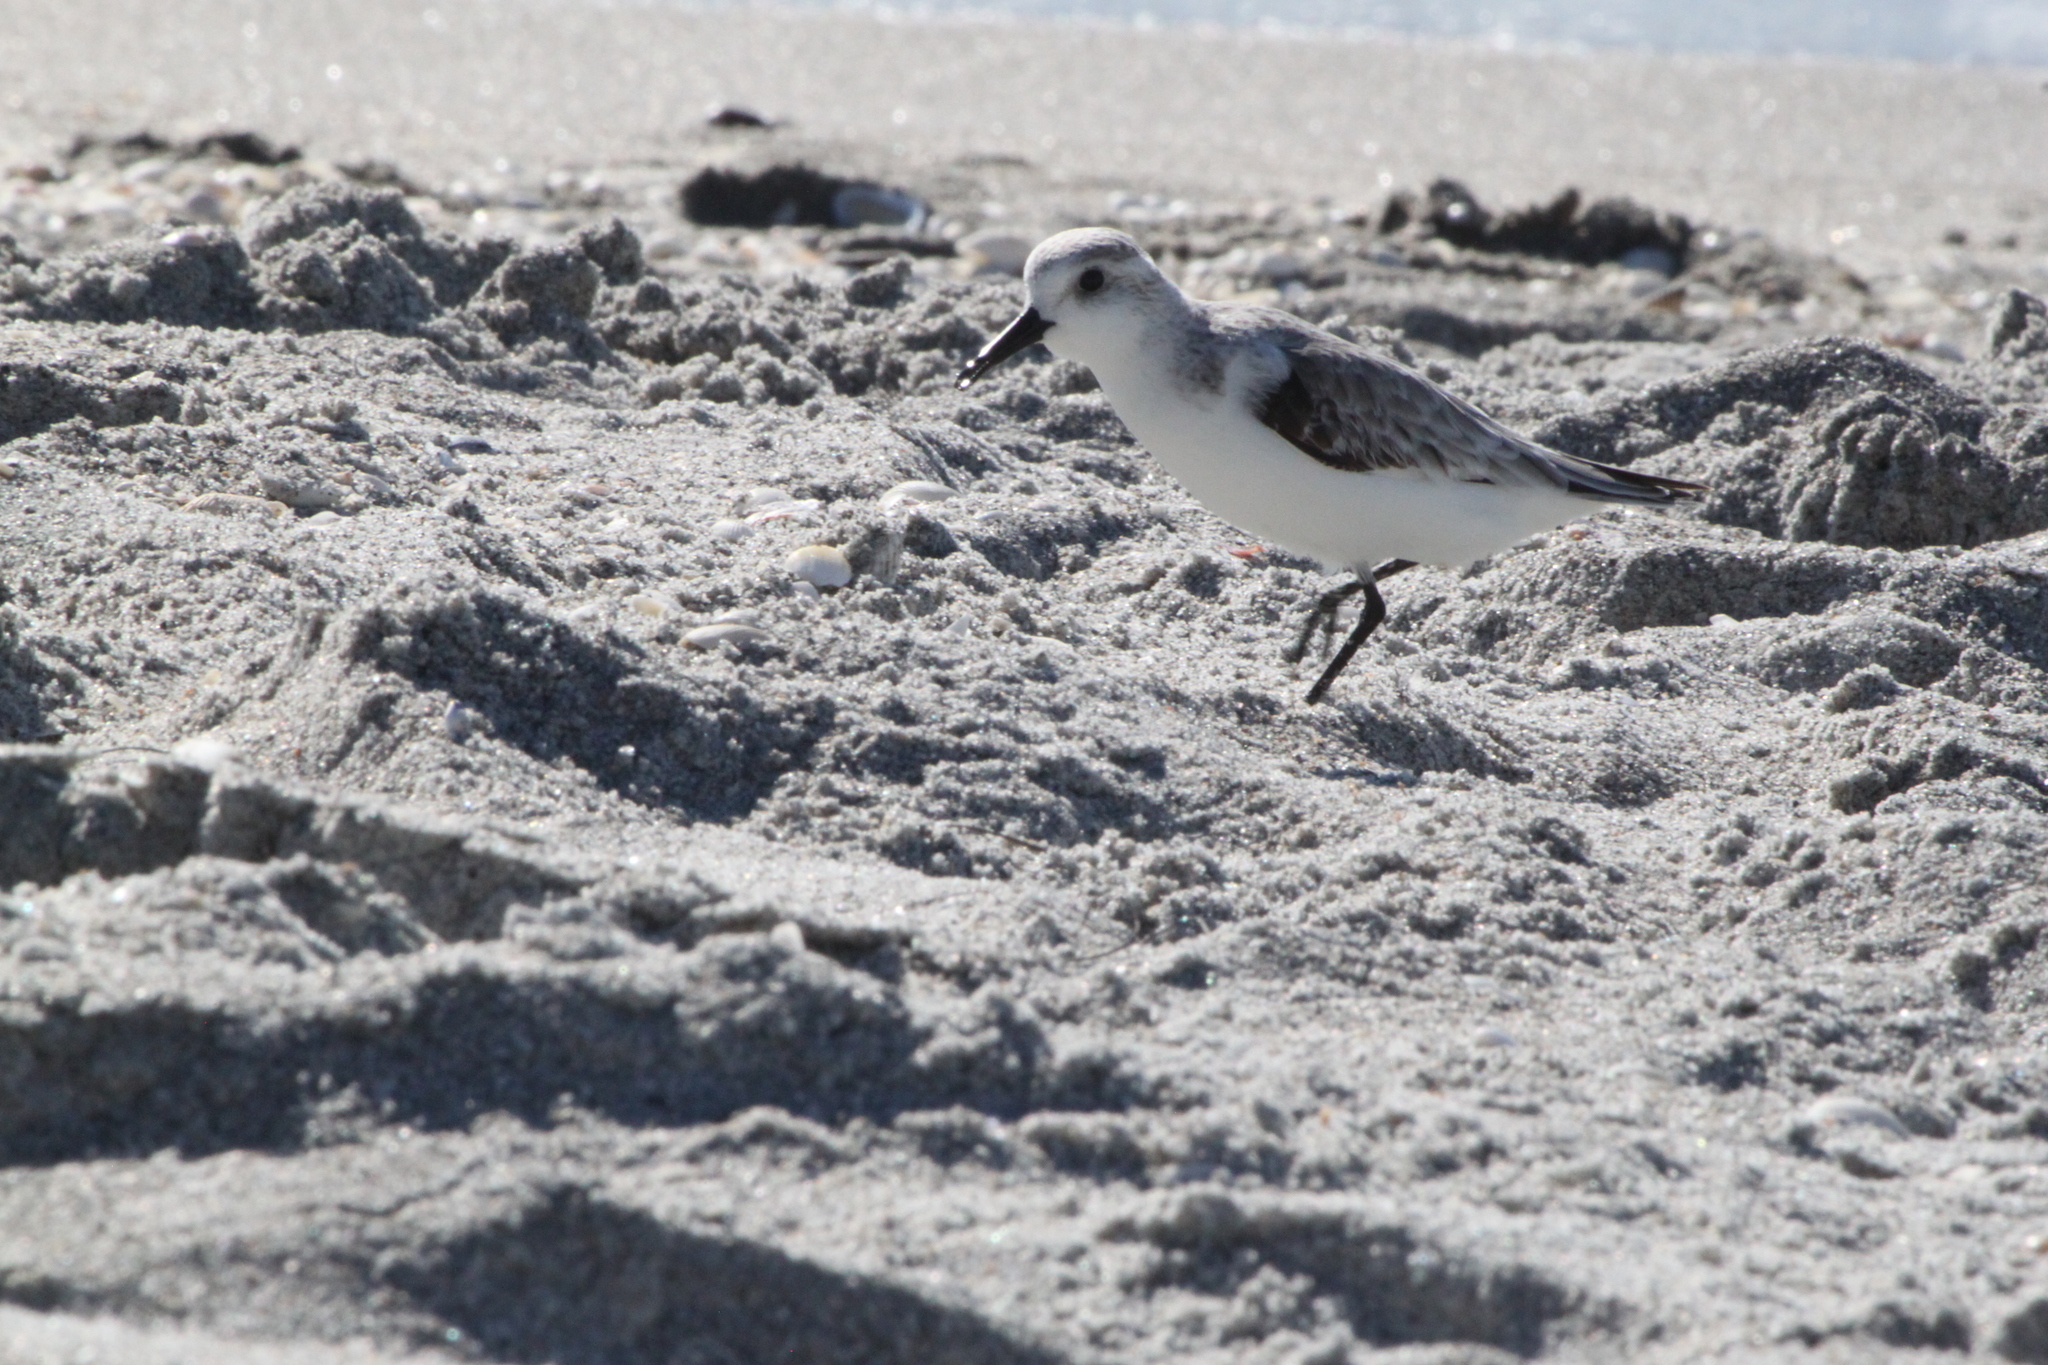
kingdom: Animalia
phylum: Chordata
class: Aves
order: Charadriiformes
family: Scolopacidae
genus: Calidris
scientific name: Calidris alba
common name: Sanderling
